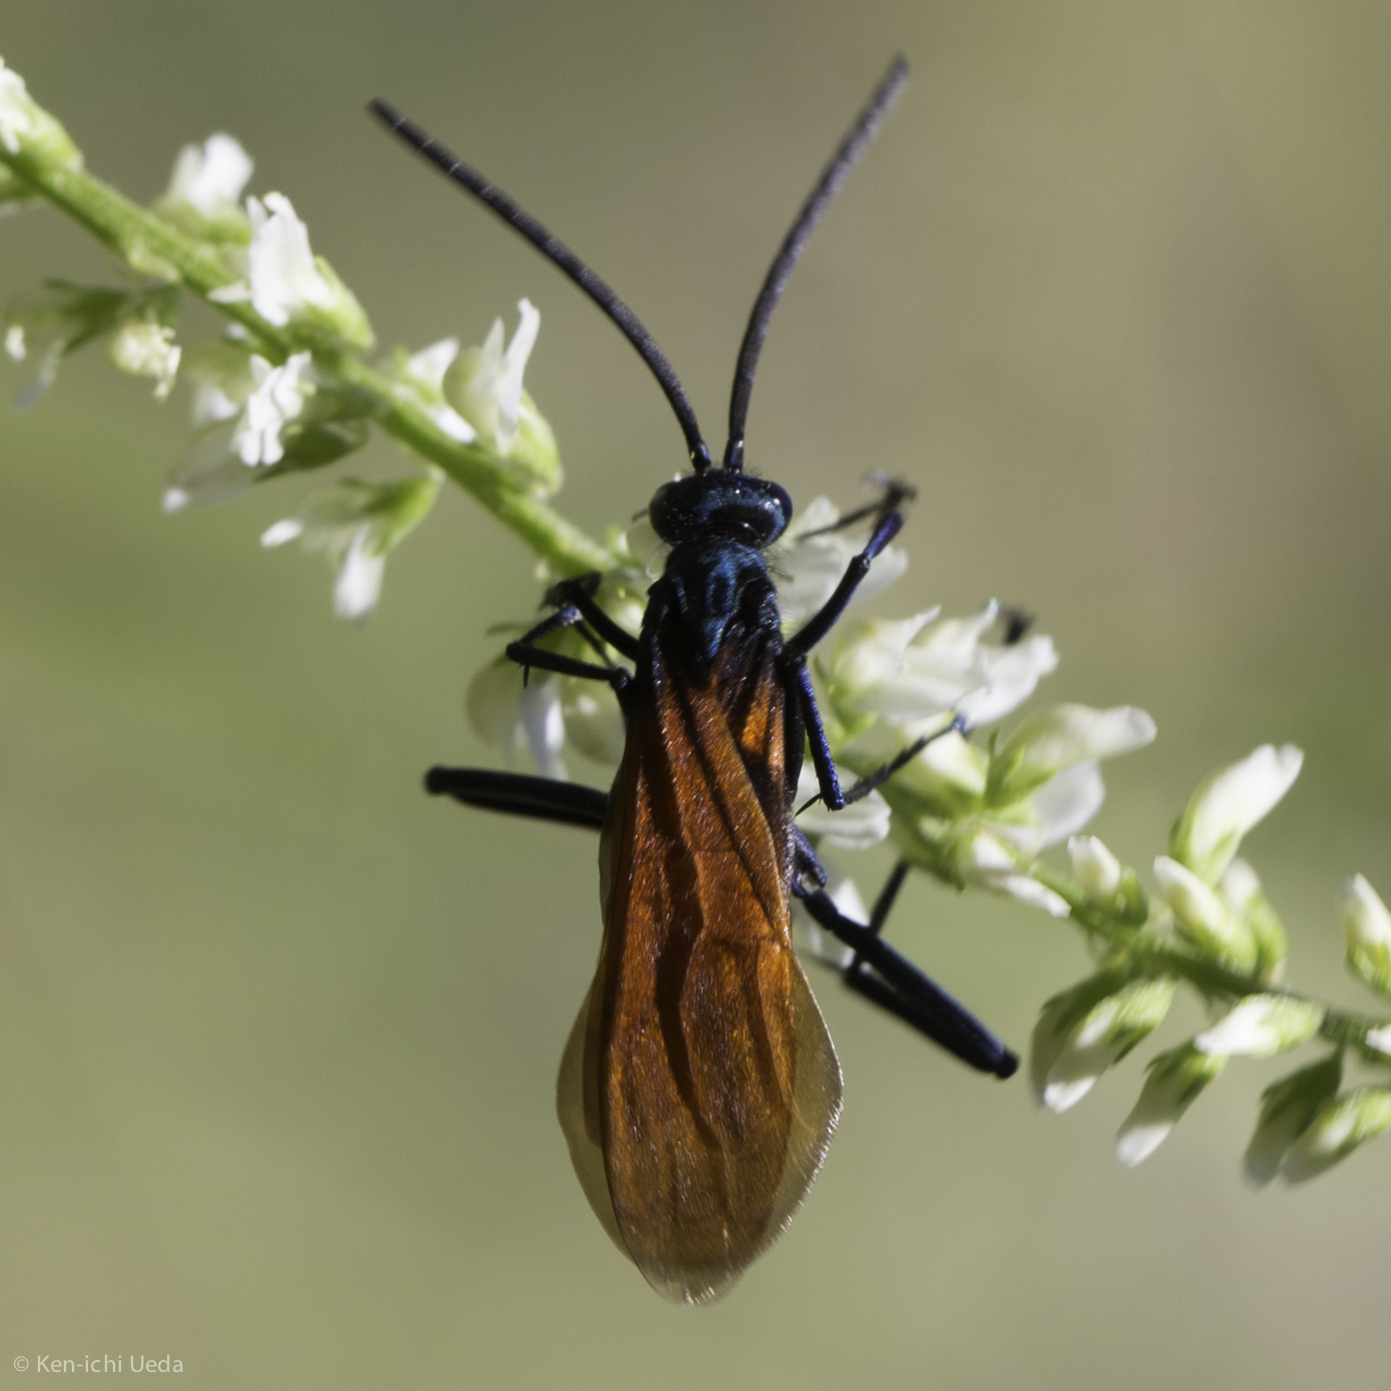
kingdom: Animalia
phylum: Arthropoda
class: Insecta
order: Hymenoptera
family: Pompilidae
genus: Pepsis
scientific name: Pepsis pallidolimbata
